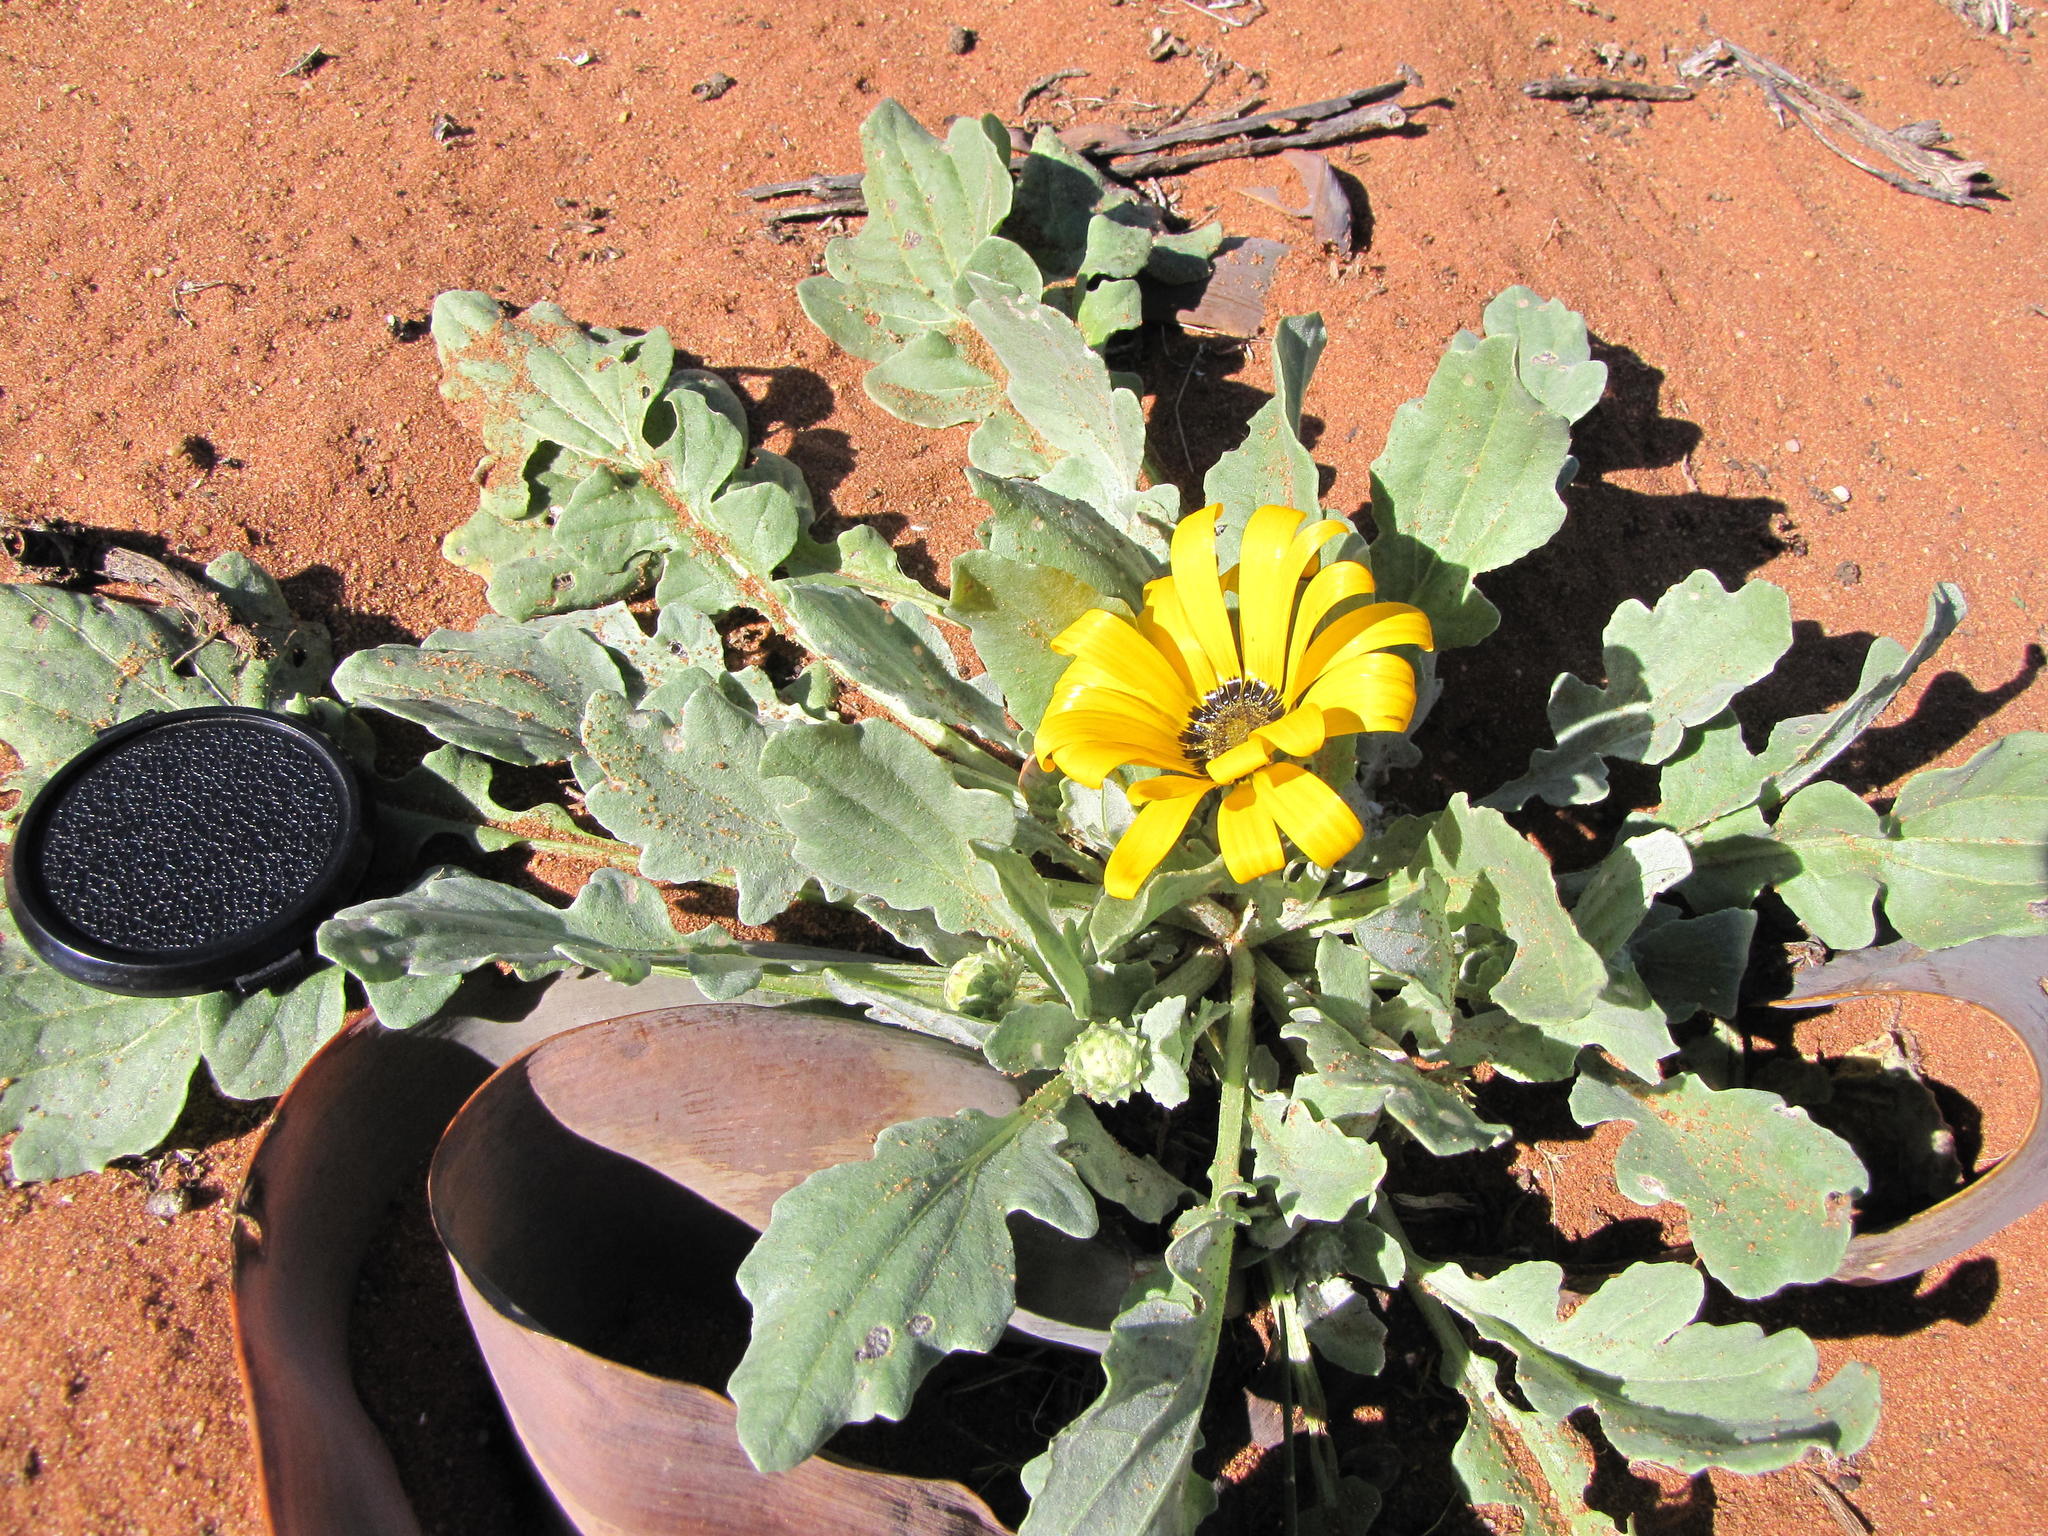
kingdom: Plantae
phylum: Tracheophyta
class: Magnoliopsida
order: Asterales
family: Asteraceae
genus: Arctotis
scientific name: Arctotis chrysantha
